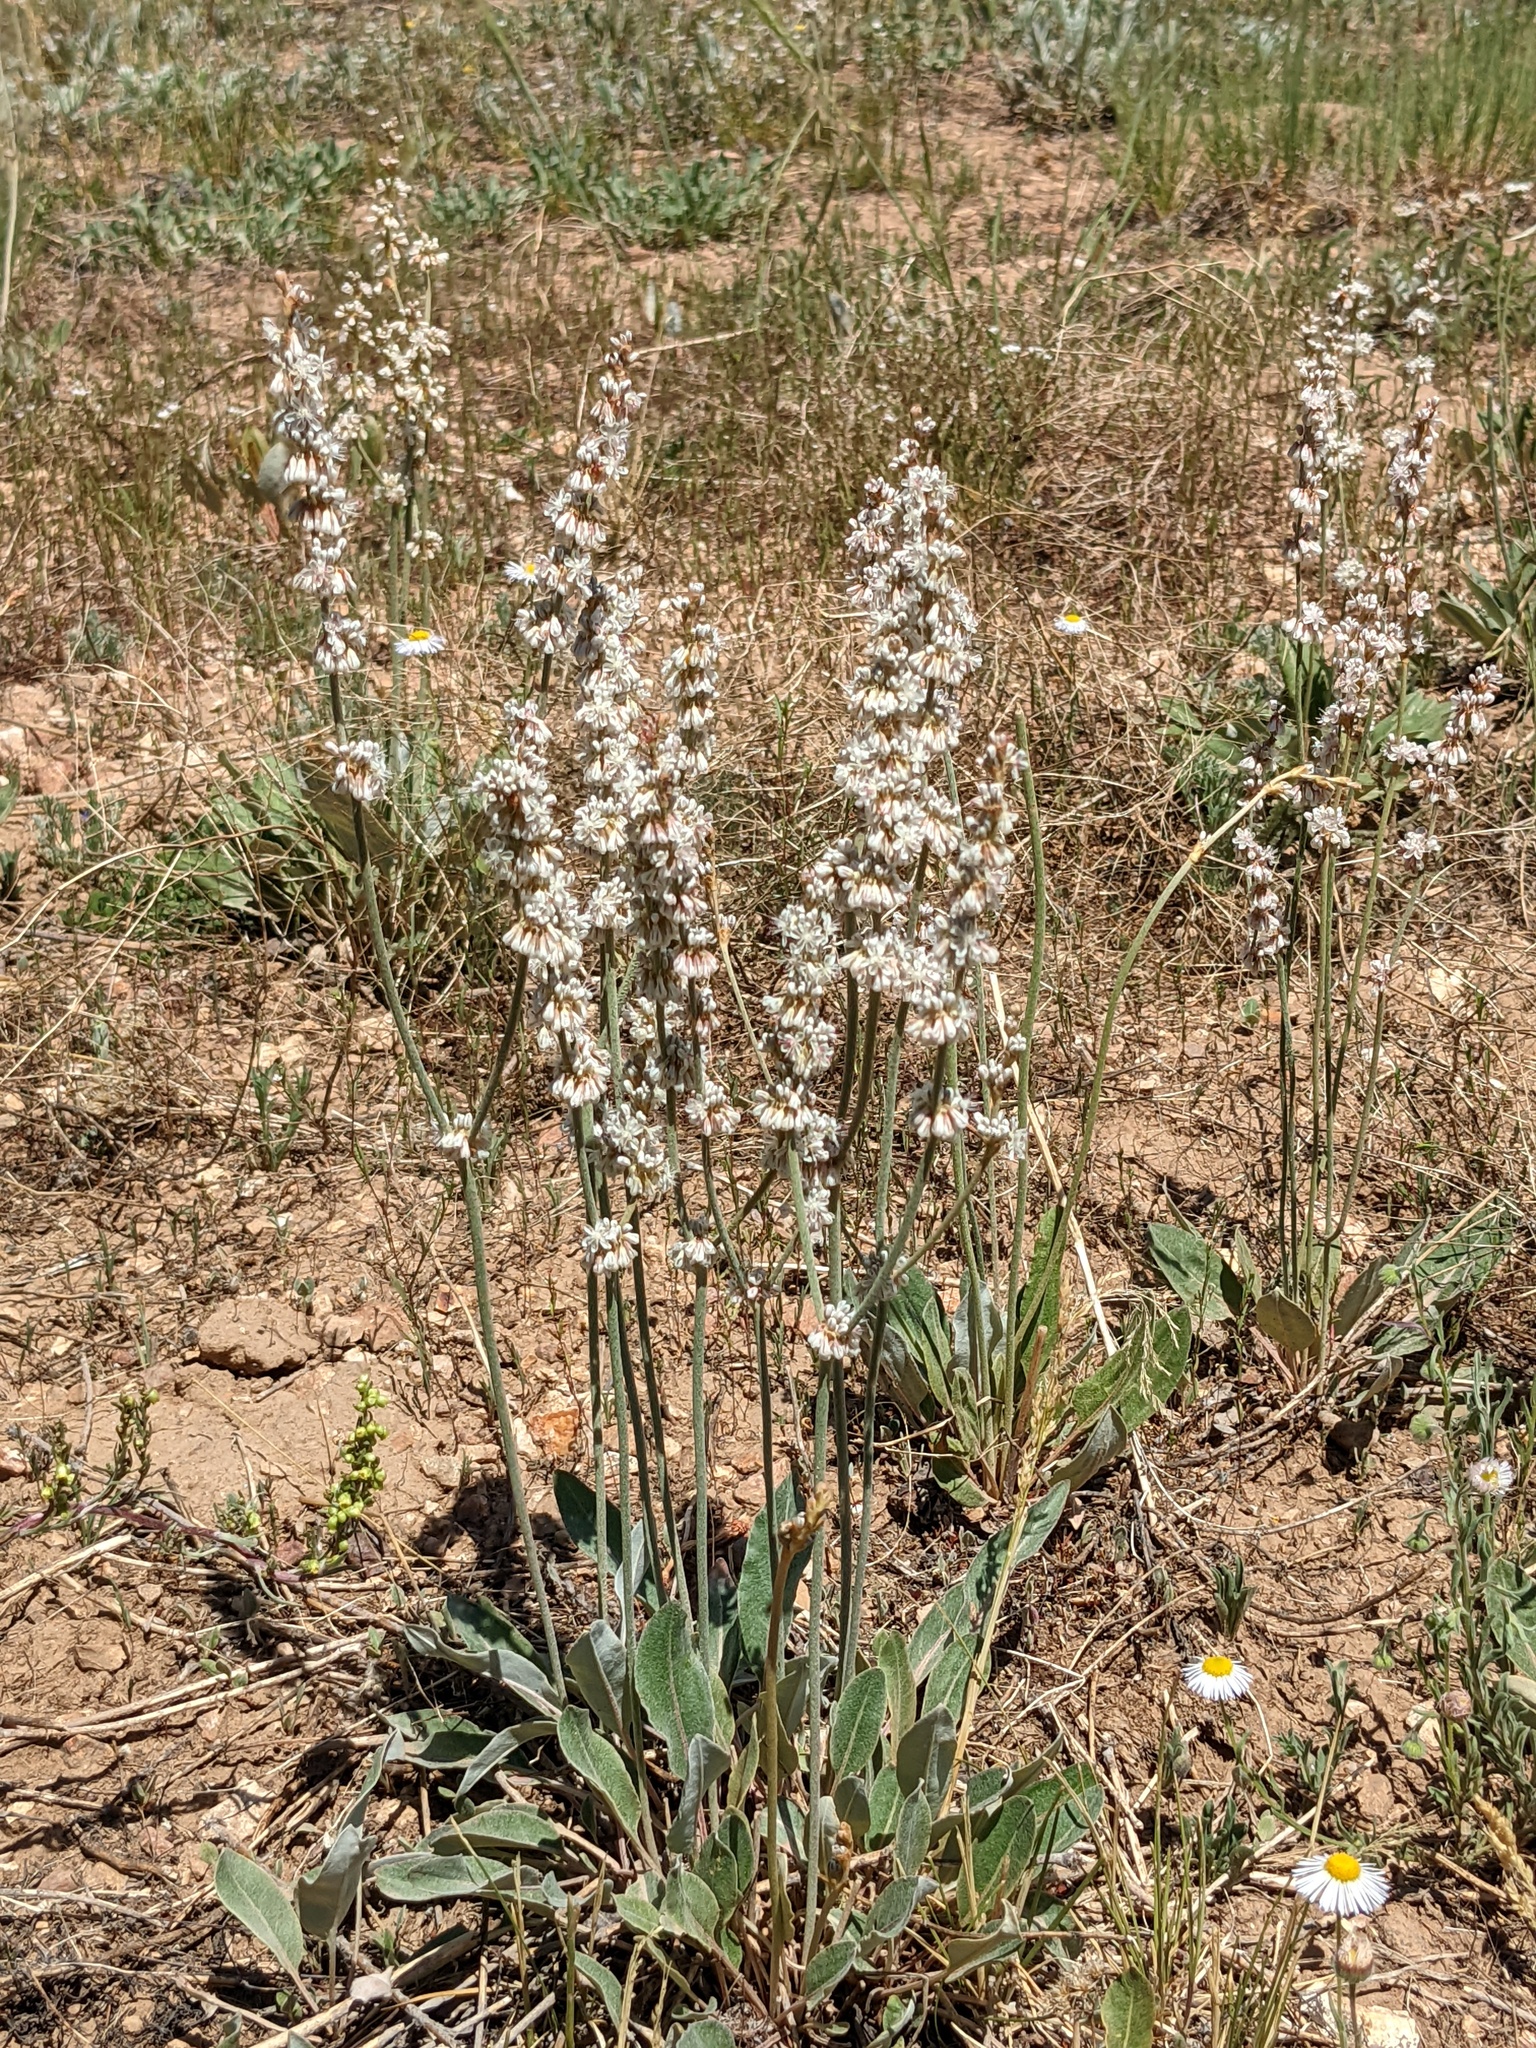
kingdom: Plantae
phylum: Tracheophyta
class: Magnoliopsida
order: Caryophyllales
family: Polygonaceae
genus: Eriogonum
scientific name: Eriogonum racemosum
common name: Redroot wild buckwheat
